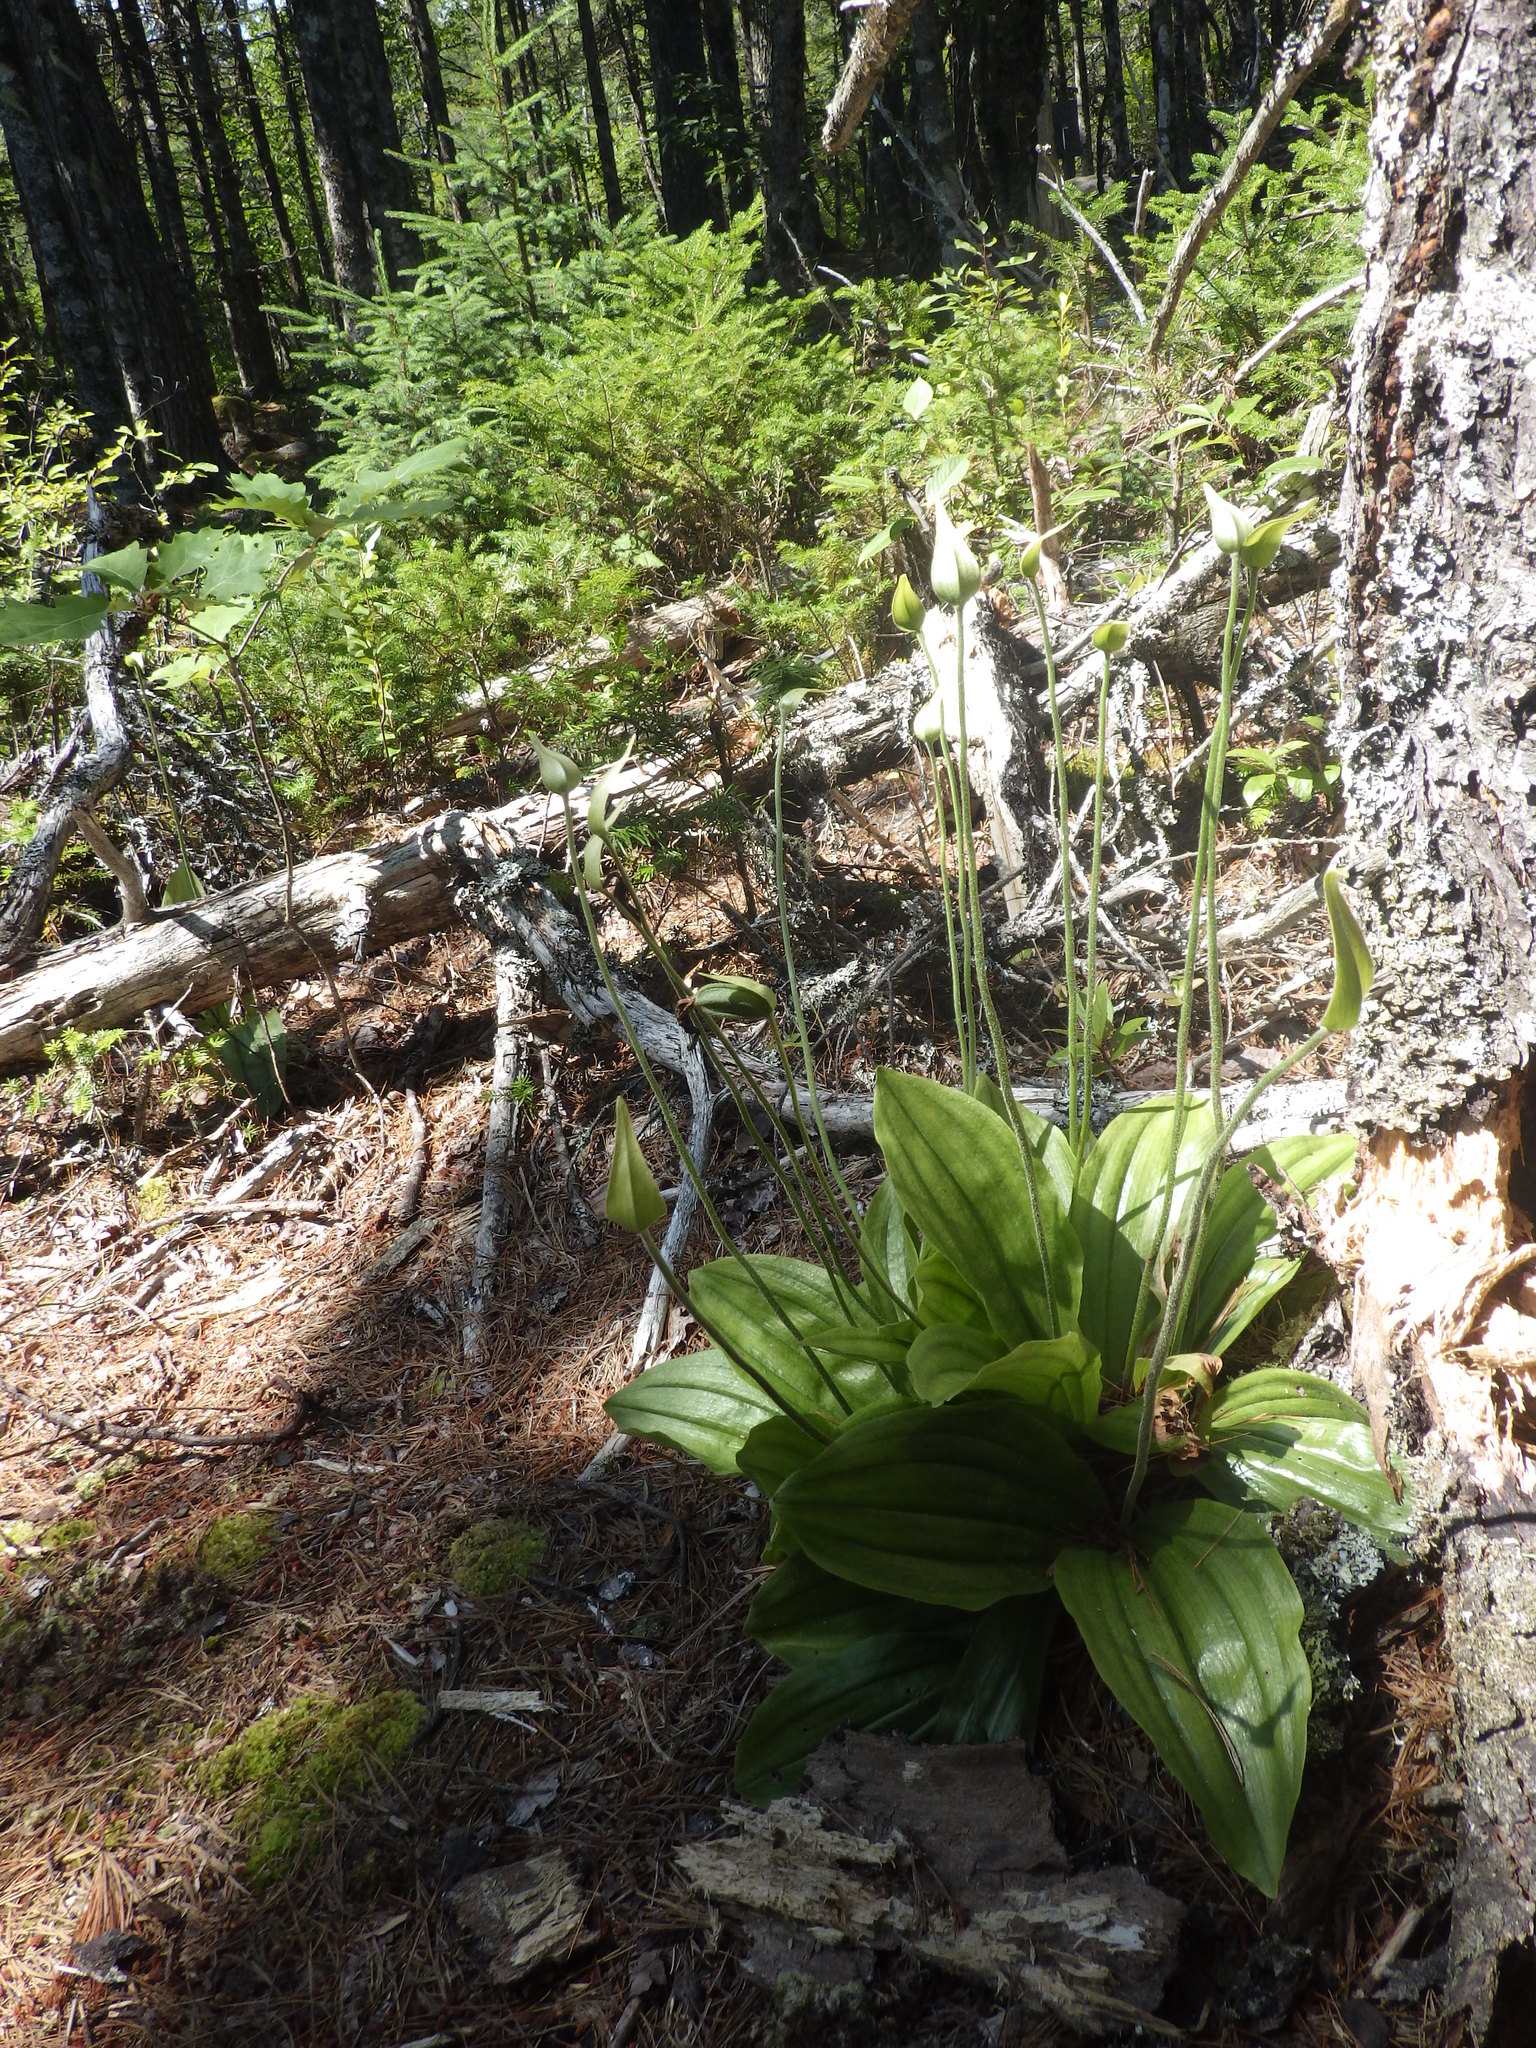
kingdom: Plantae
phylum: Tracheophyta
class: Liliopsida
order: Asparagales
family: Orchidaceae
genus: Cypripedium
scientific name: Cypripedium acaule
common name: Pink lady's-slipper
